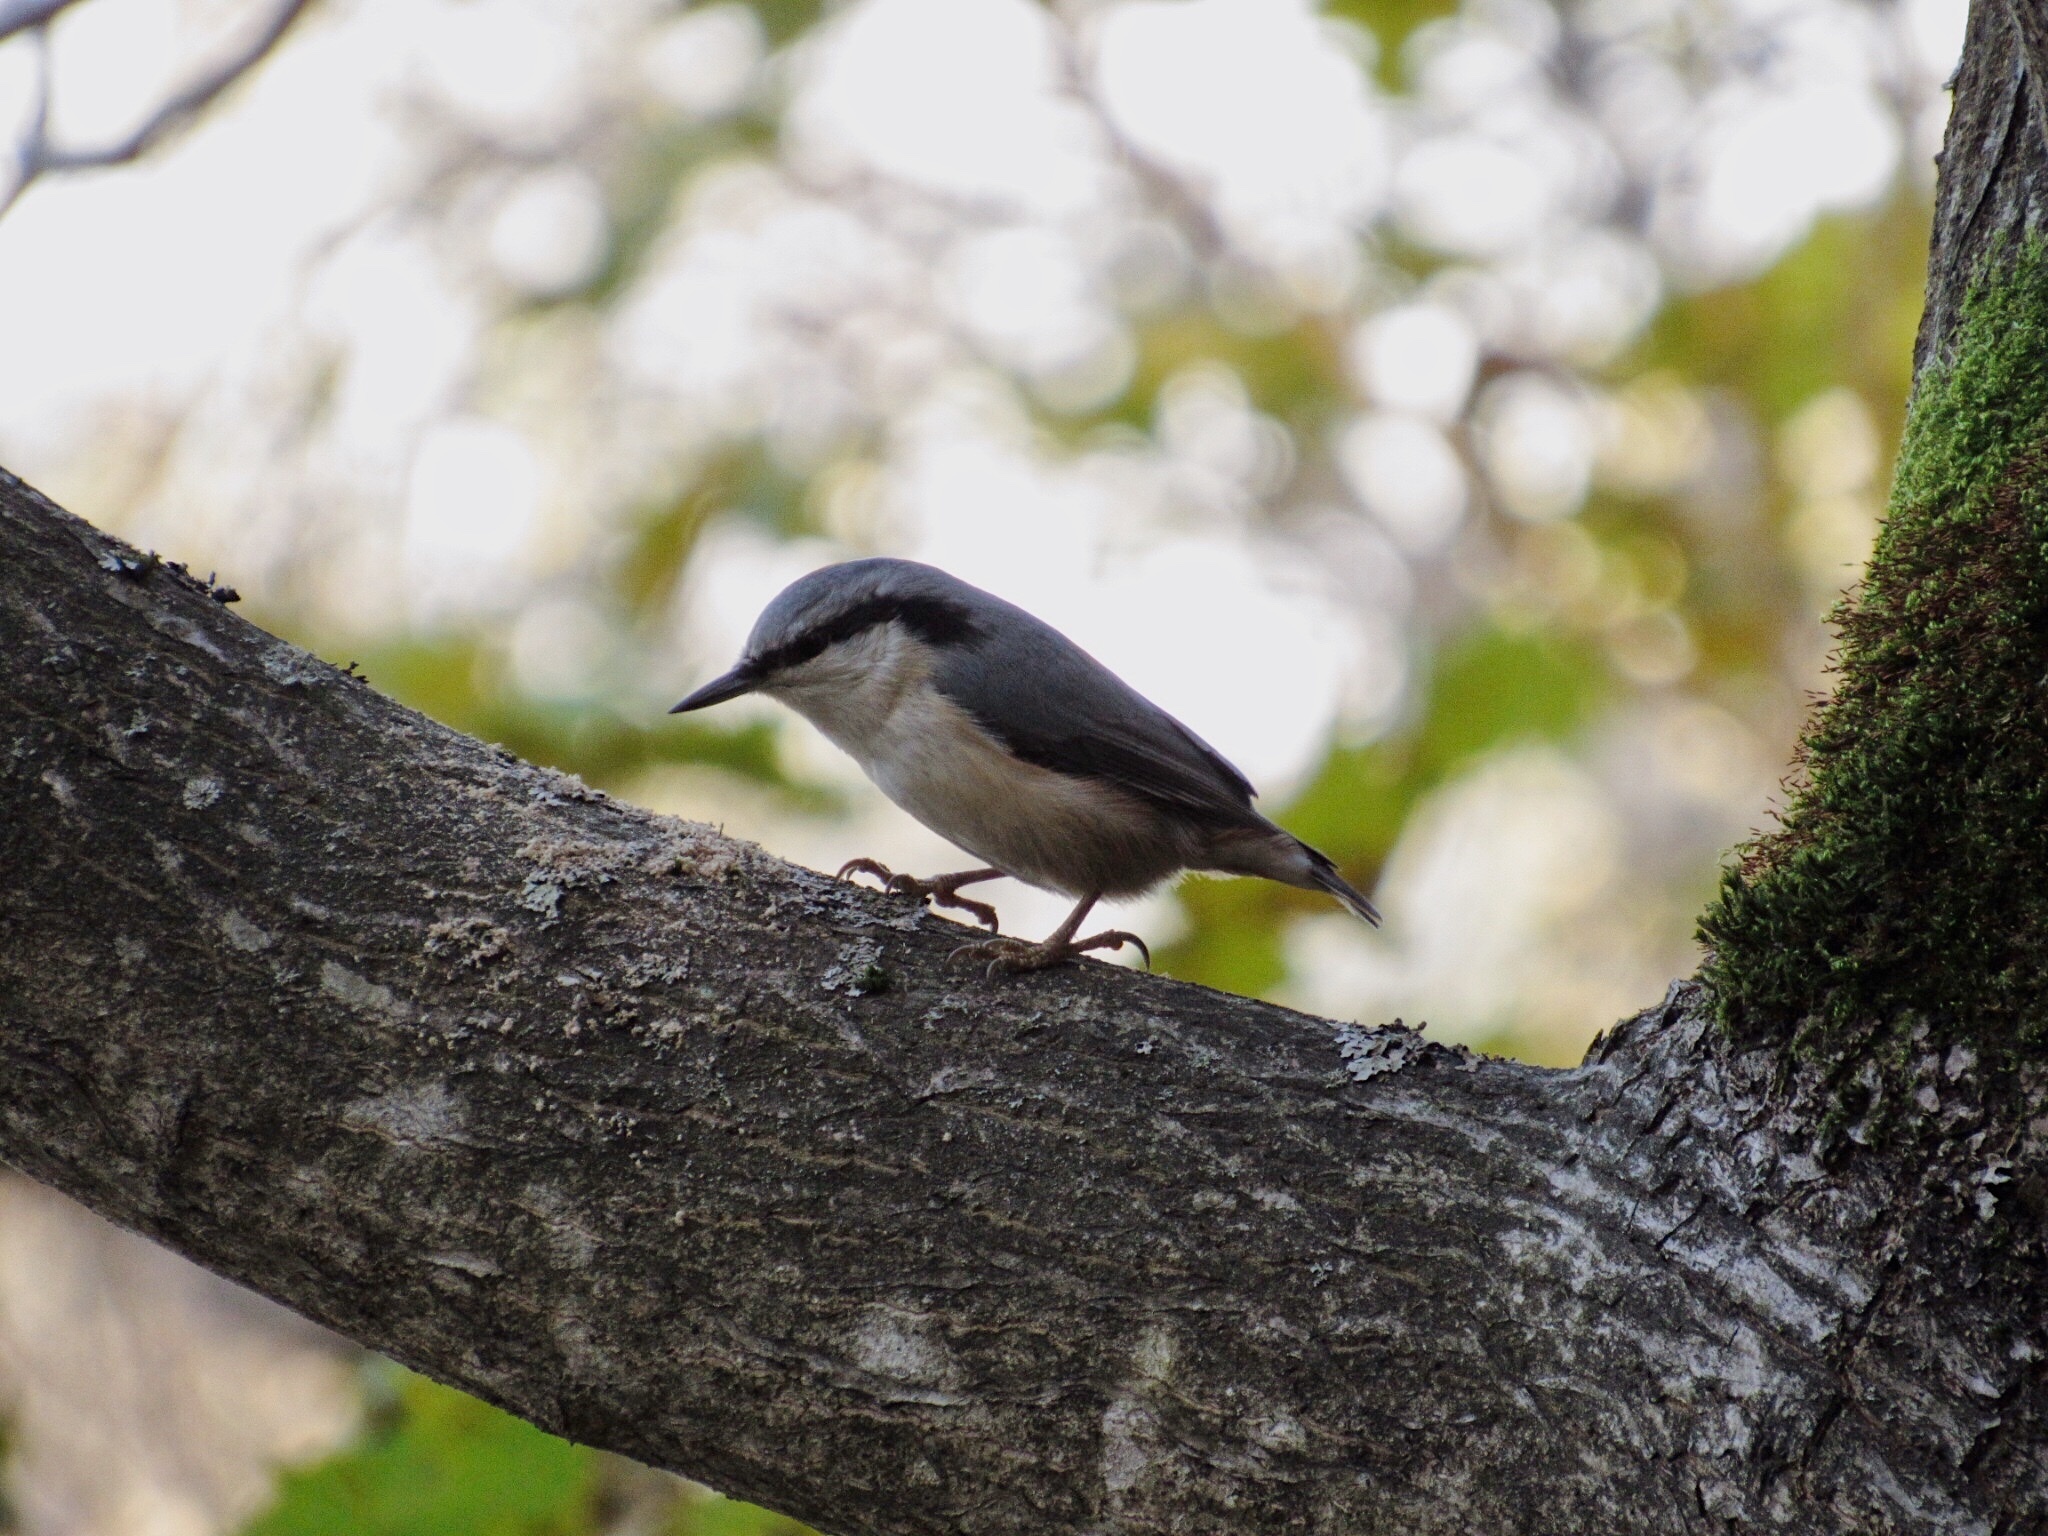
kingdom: Animalia
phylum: Chordata
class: Aves
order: Passeriformes
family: Sittidae
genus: Sitta
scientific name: Sitta europaea
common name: Eurasian nuthatch
